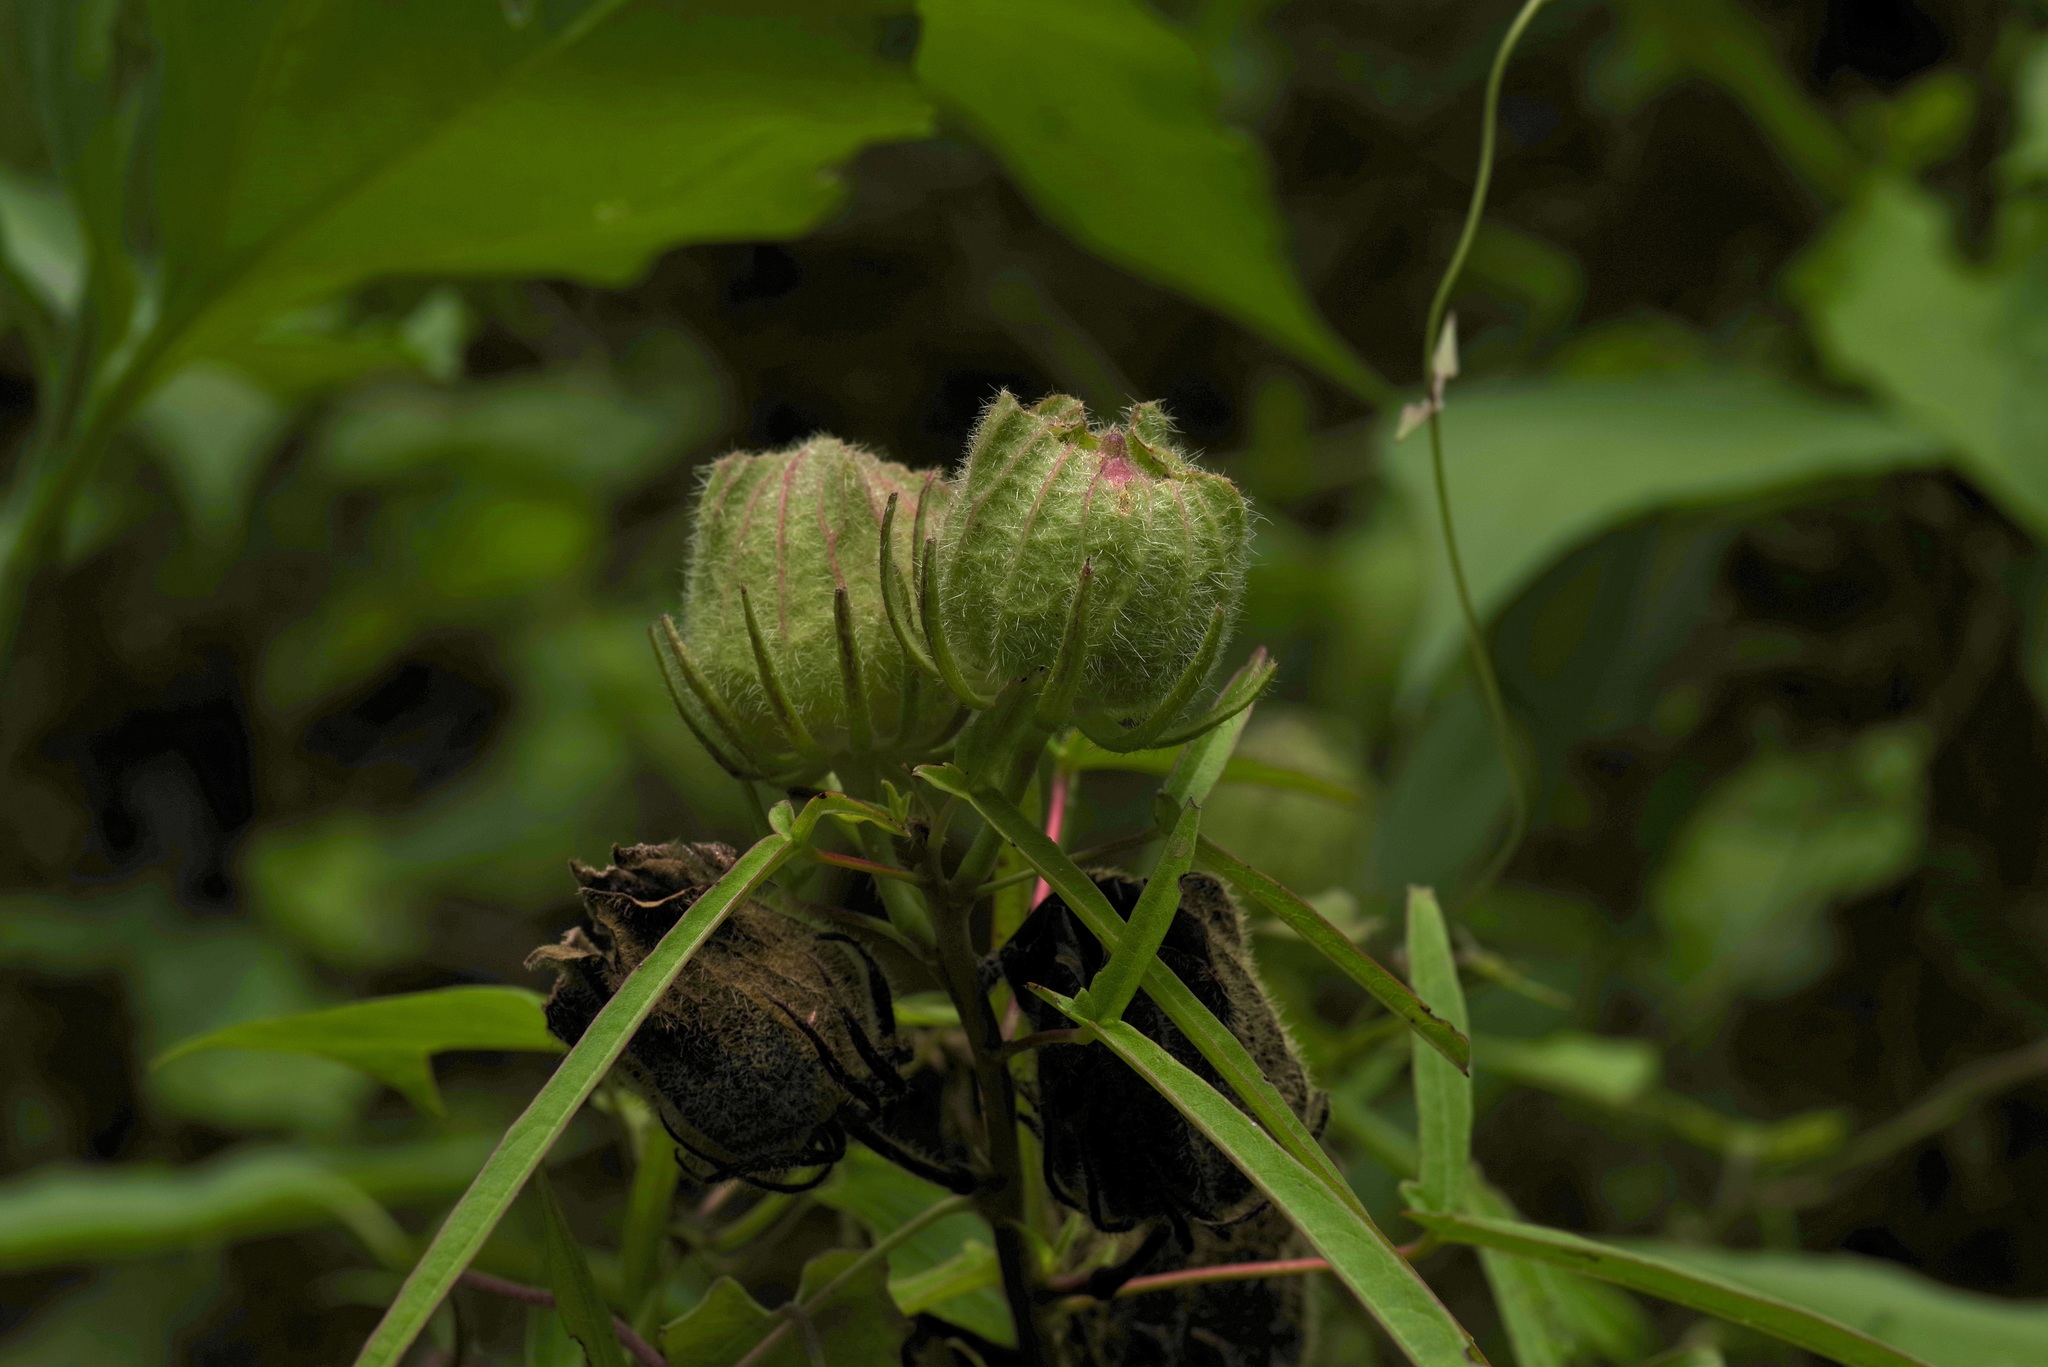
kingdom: Plantae
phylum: Tracheophyta
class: Magnoliopsida
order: Malvales
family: Malvaceae
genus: Hibiscus
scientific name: Hibiscus dasycalyx
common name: Neches river rose-mallow
